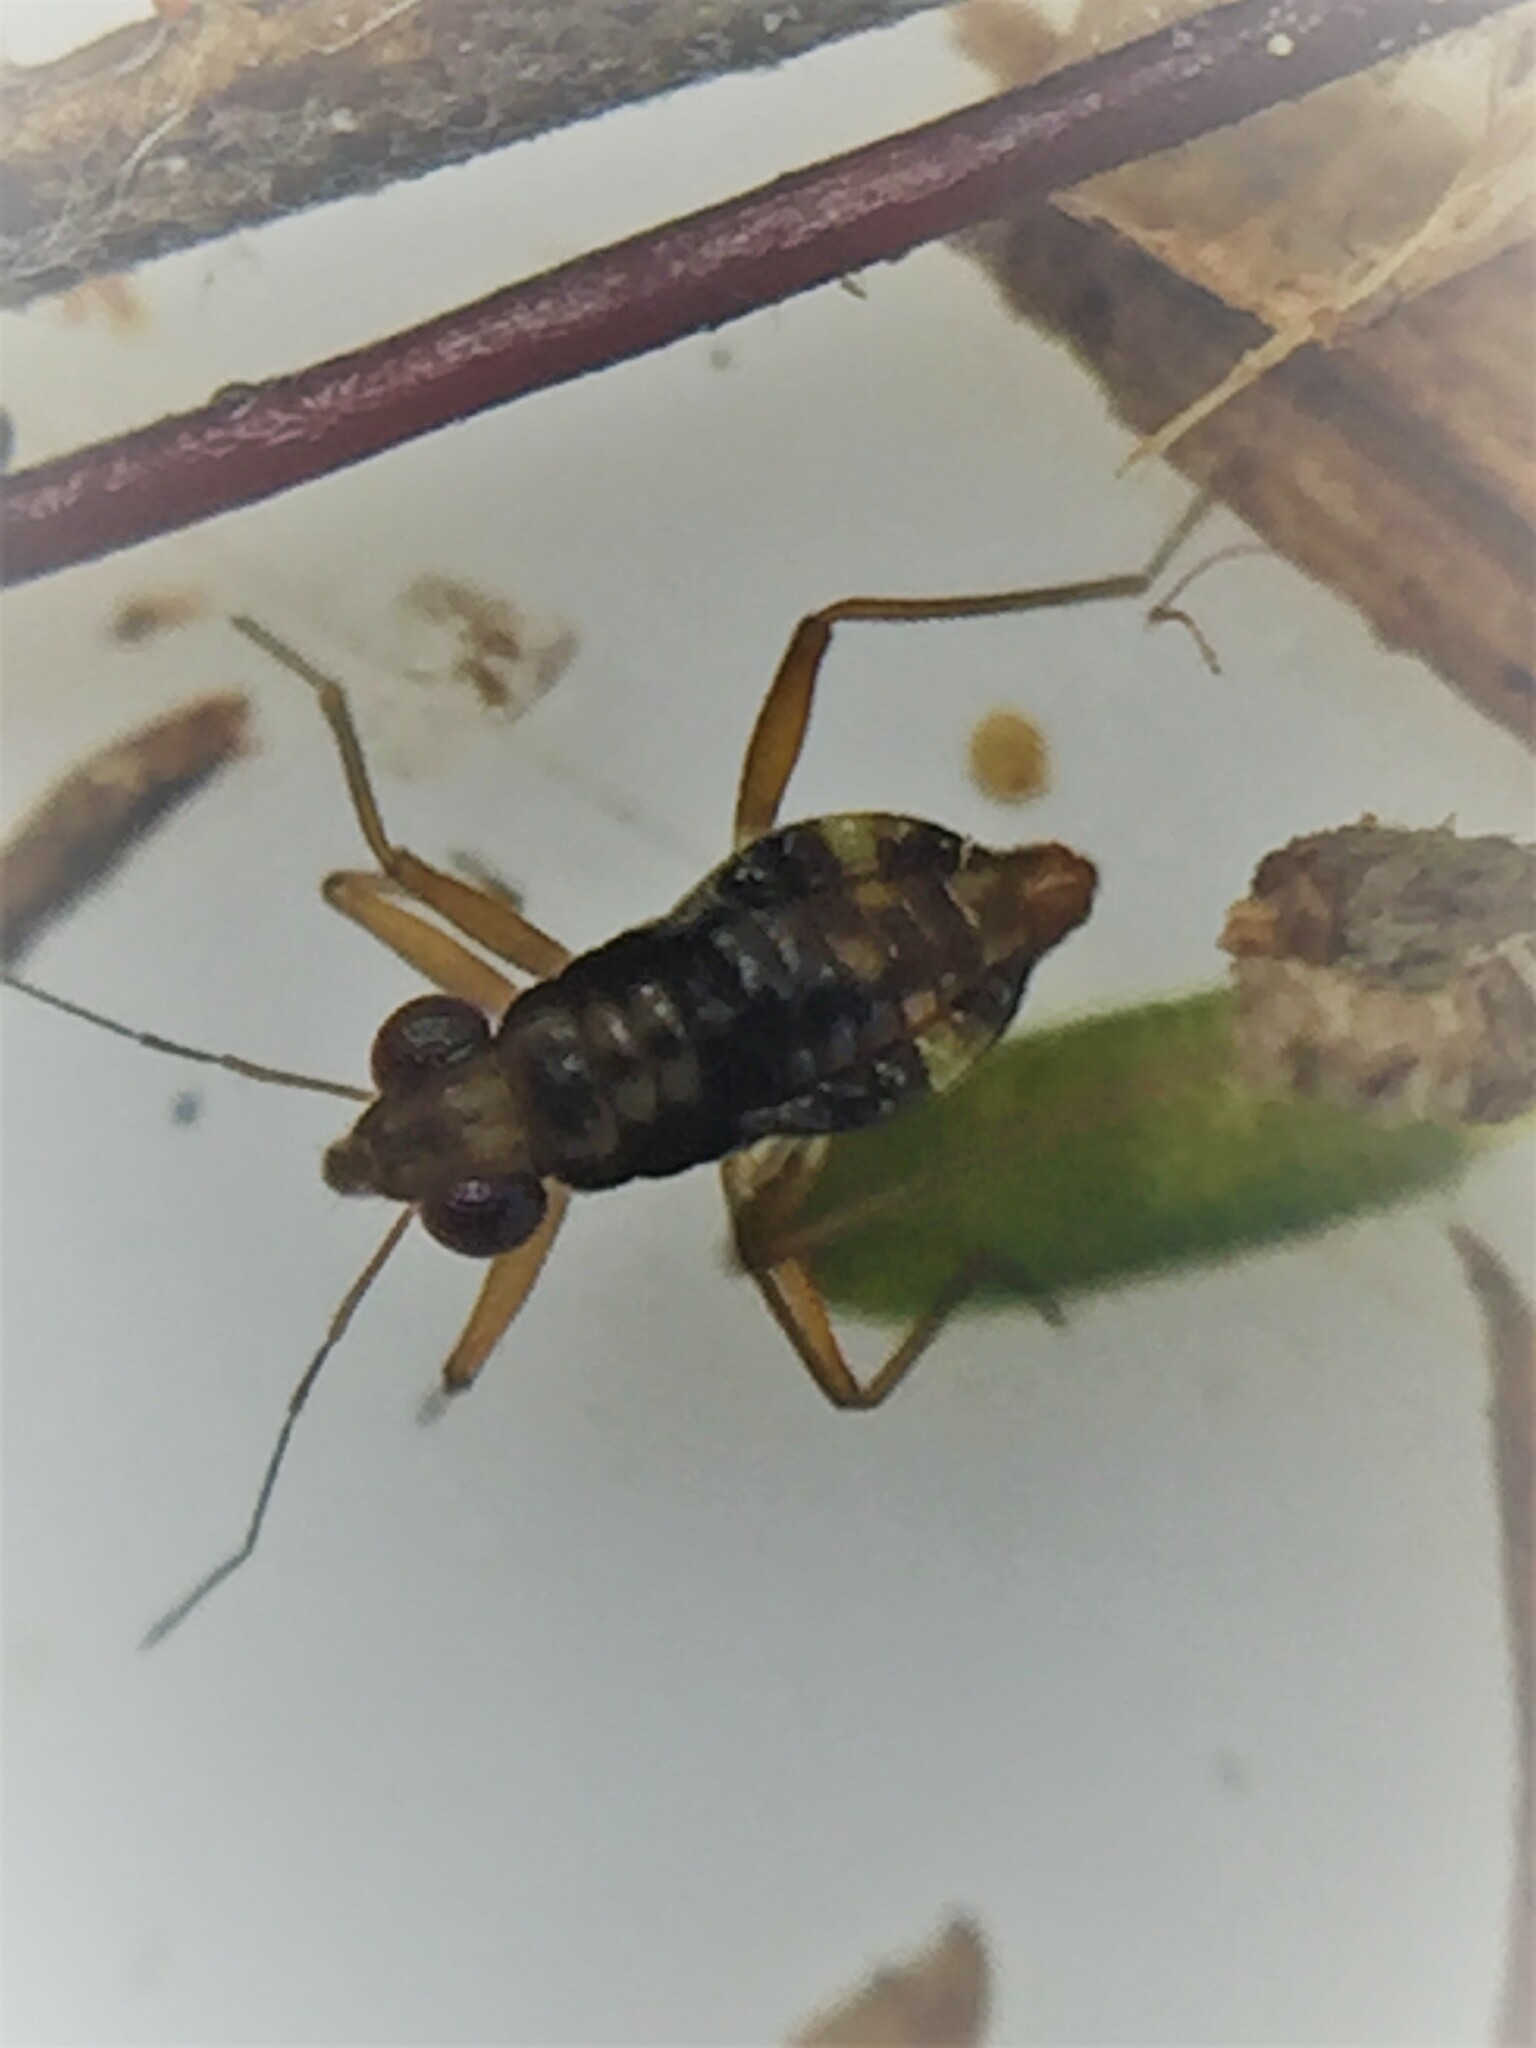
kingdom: Animalia
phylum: Arthropoda
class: Insecta
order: Hemiptera
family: Mesoveliidae
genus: Mniovelia
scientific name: Mniovelia kuscheli
